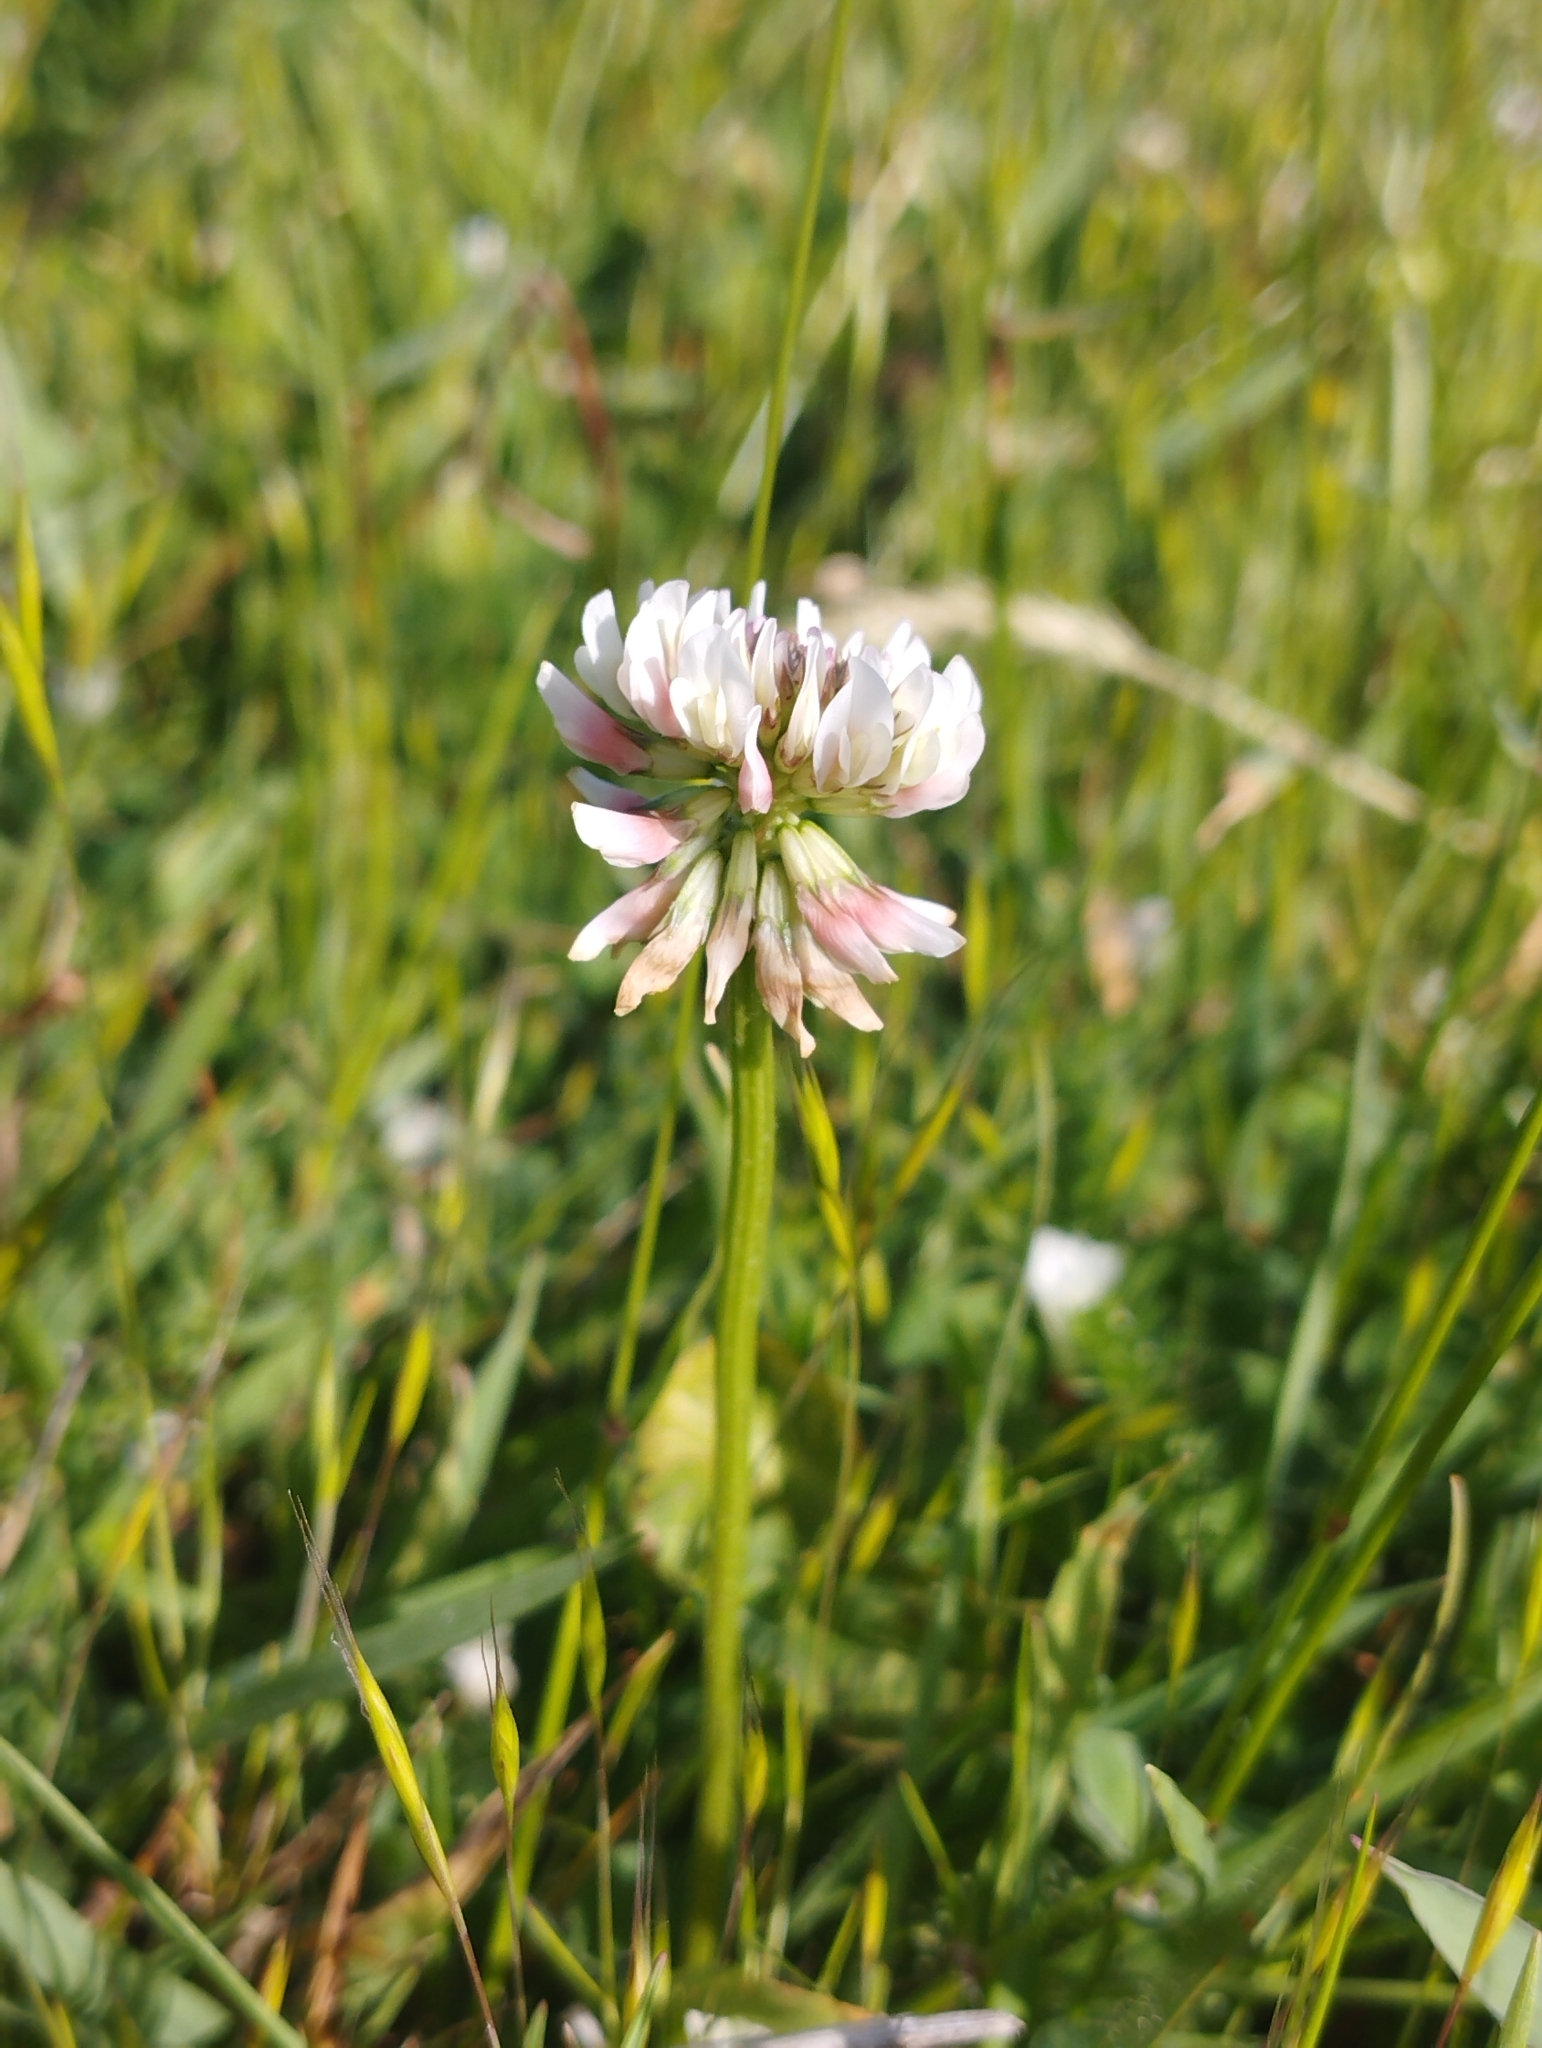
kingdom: Plantae
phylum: Tracheophyta
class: Magnoliopsida
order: Fabales
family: Fabaceae
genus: Trifolium
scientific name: Trifolium repens
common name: White clover
